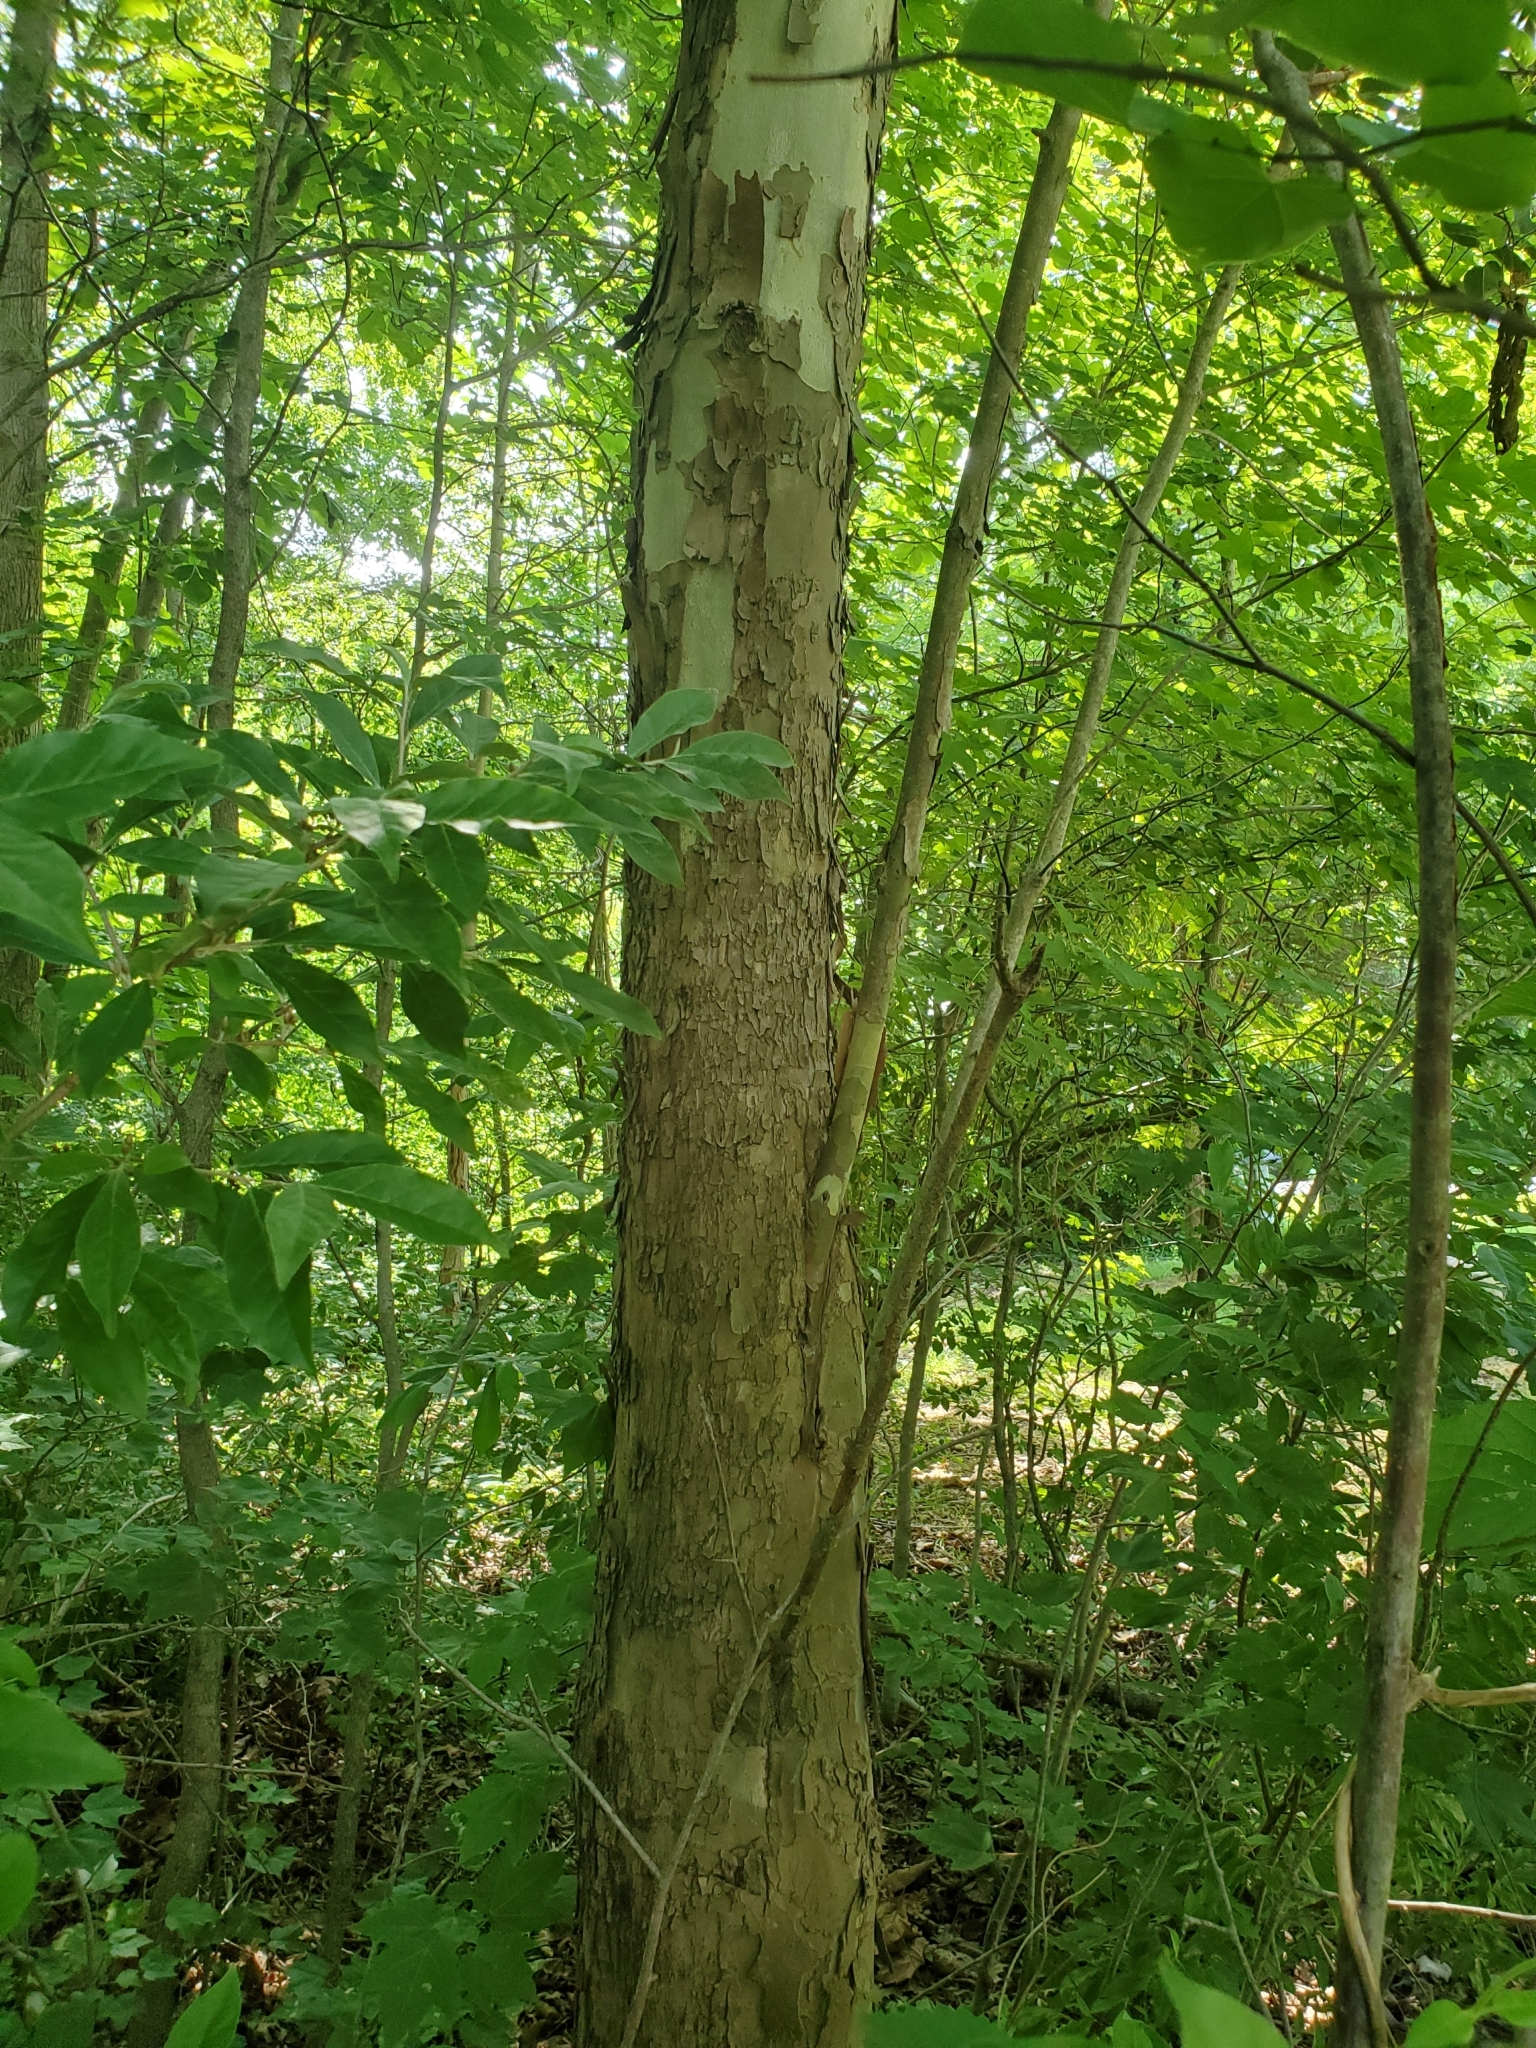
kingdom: Plantae
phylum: Tracheophyta
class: Magnoliopsida
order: Proteales
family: Platanaceae
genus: Platanus
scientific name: Platanus occidentalis
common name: American sycamore
